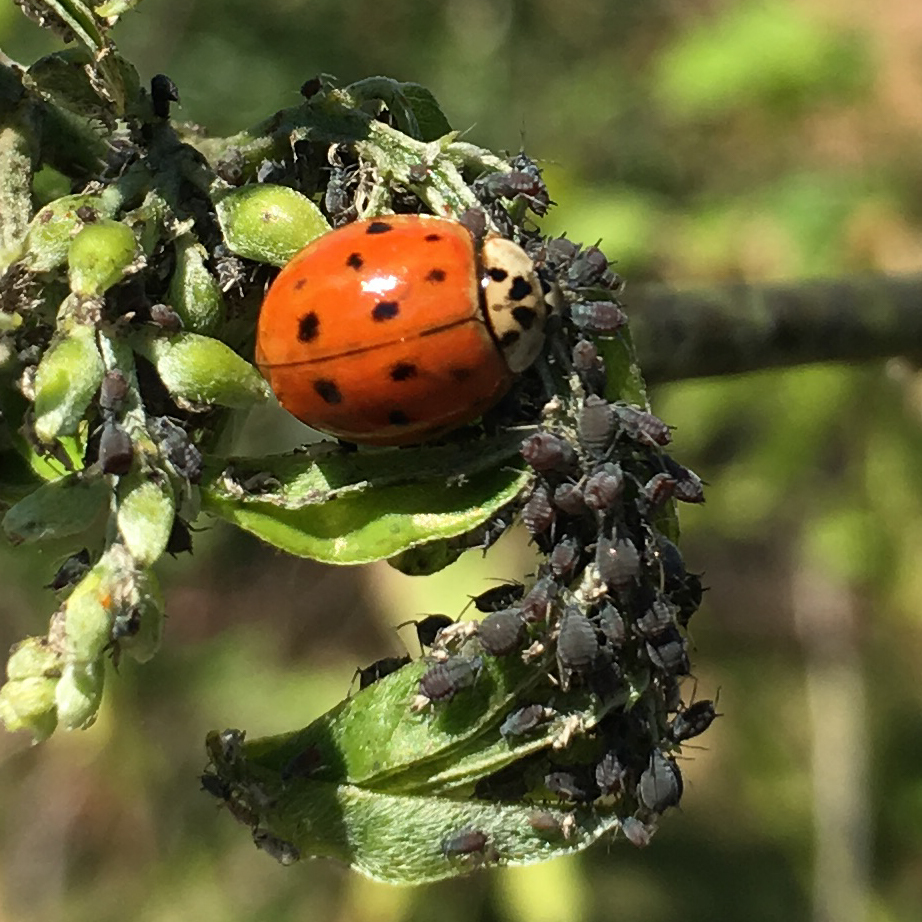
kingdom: Animalia
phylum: Arthropoda
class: Insecta
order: Coleoptera
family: Coccinellidae
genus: Harmonia
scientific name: Harmonia axyridis
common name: Harlequin ladybird
